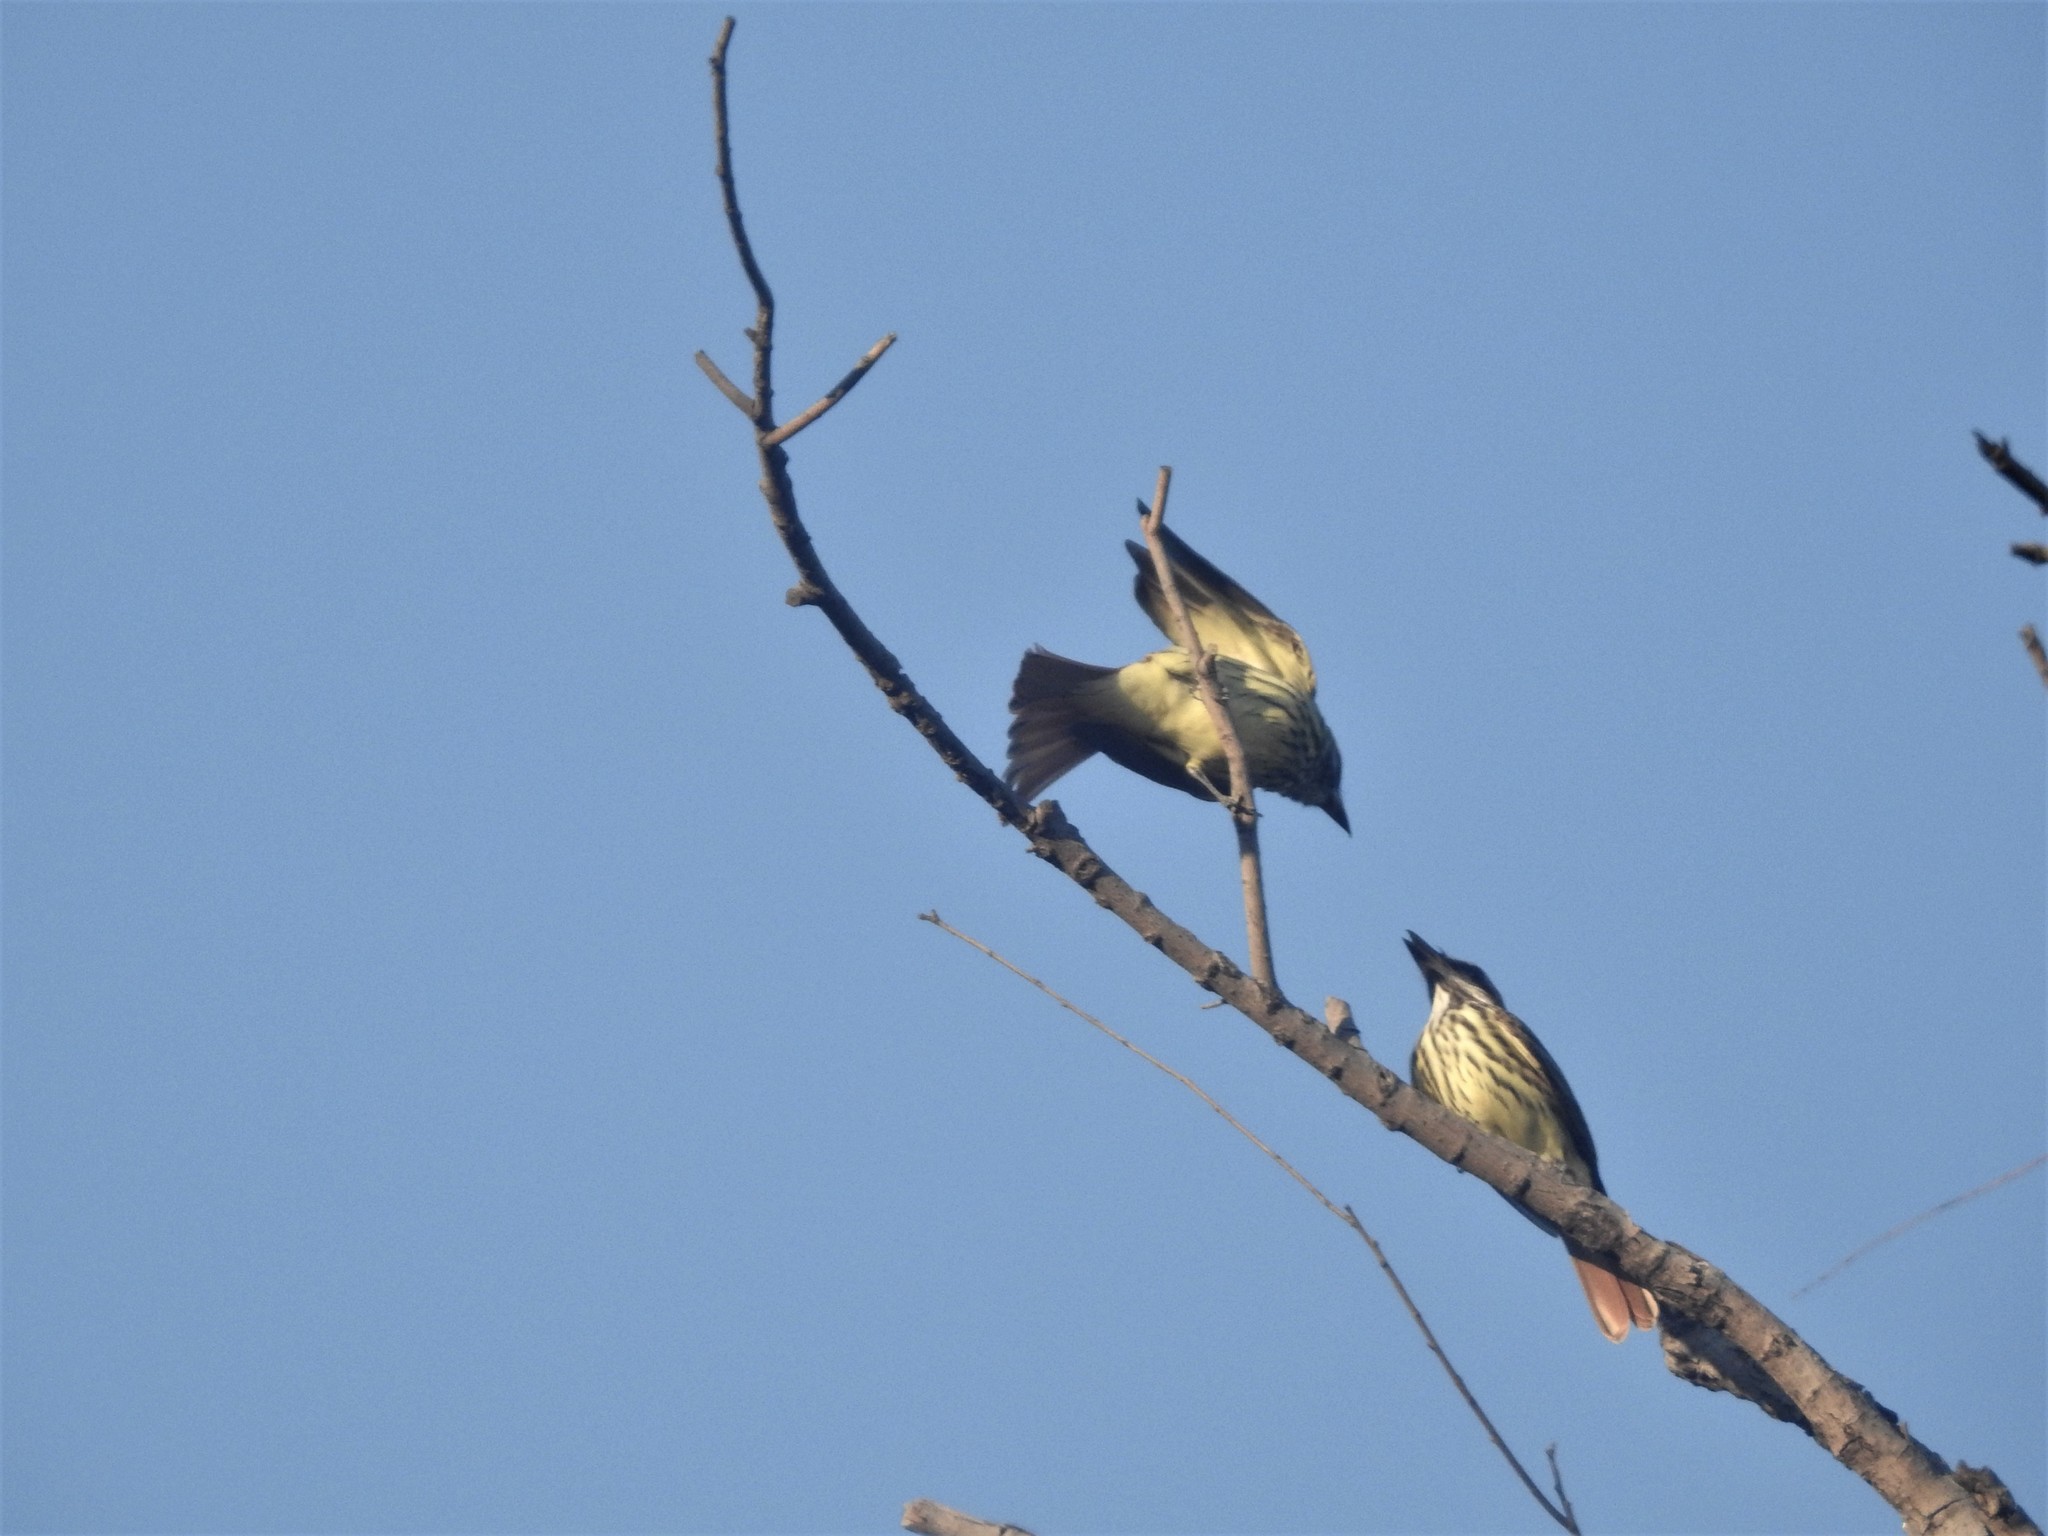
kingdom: Animalia
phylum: Chordata
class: Aves
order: Passeriformes
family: Tyrannidae
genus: Myiodynastes
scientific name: Myiodynastes luteiventris
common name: Sulphur-bellied flycatcher
